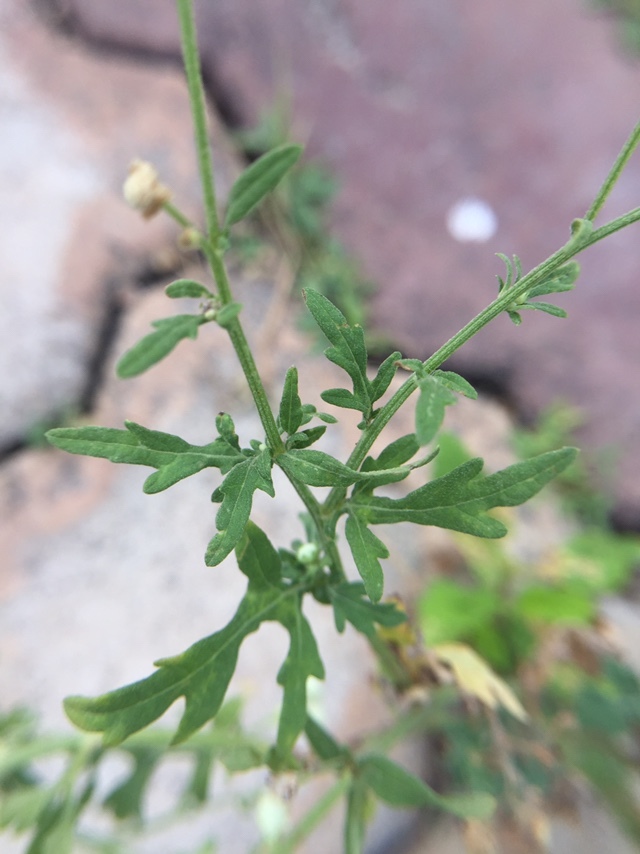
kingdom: Plantae
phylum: Tracheophyta
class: Magnoliopsida
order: Asterales
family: Asteraceae
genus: Parthenium
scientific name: Parthenium hysterophorus
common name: Santa maria feverfew
